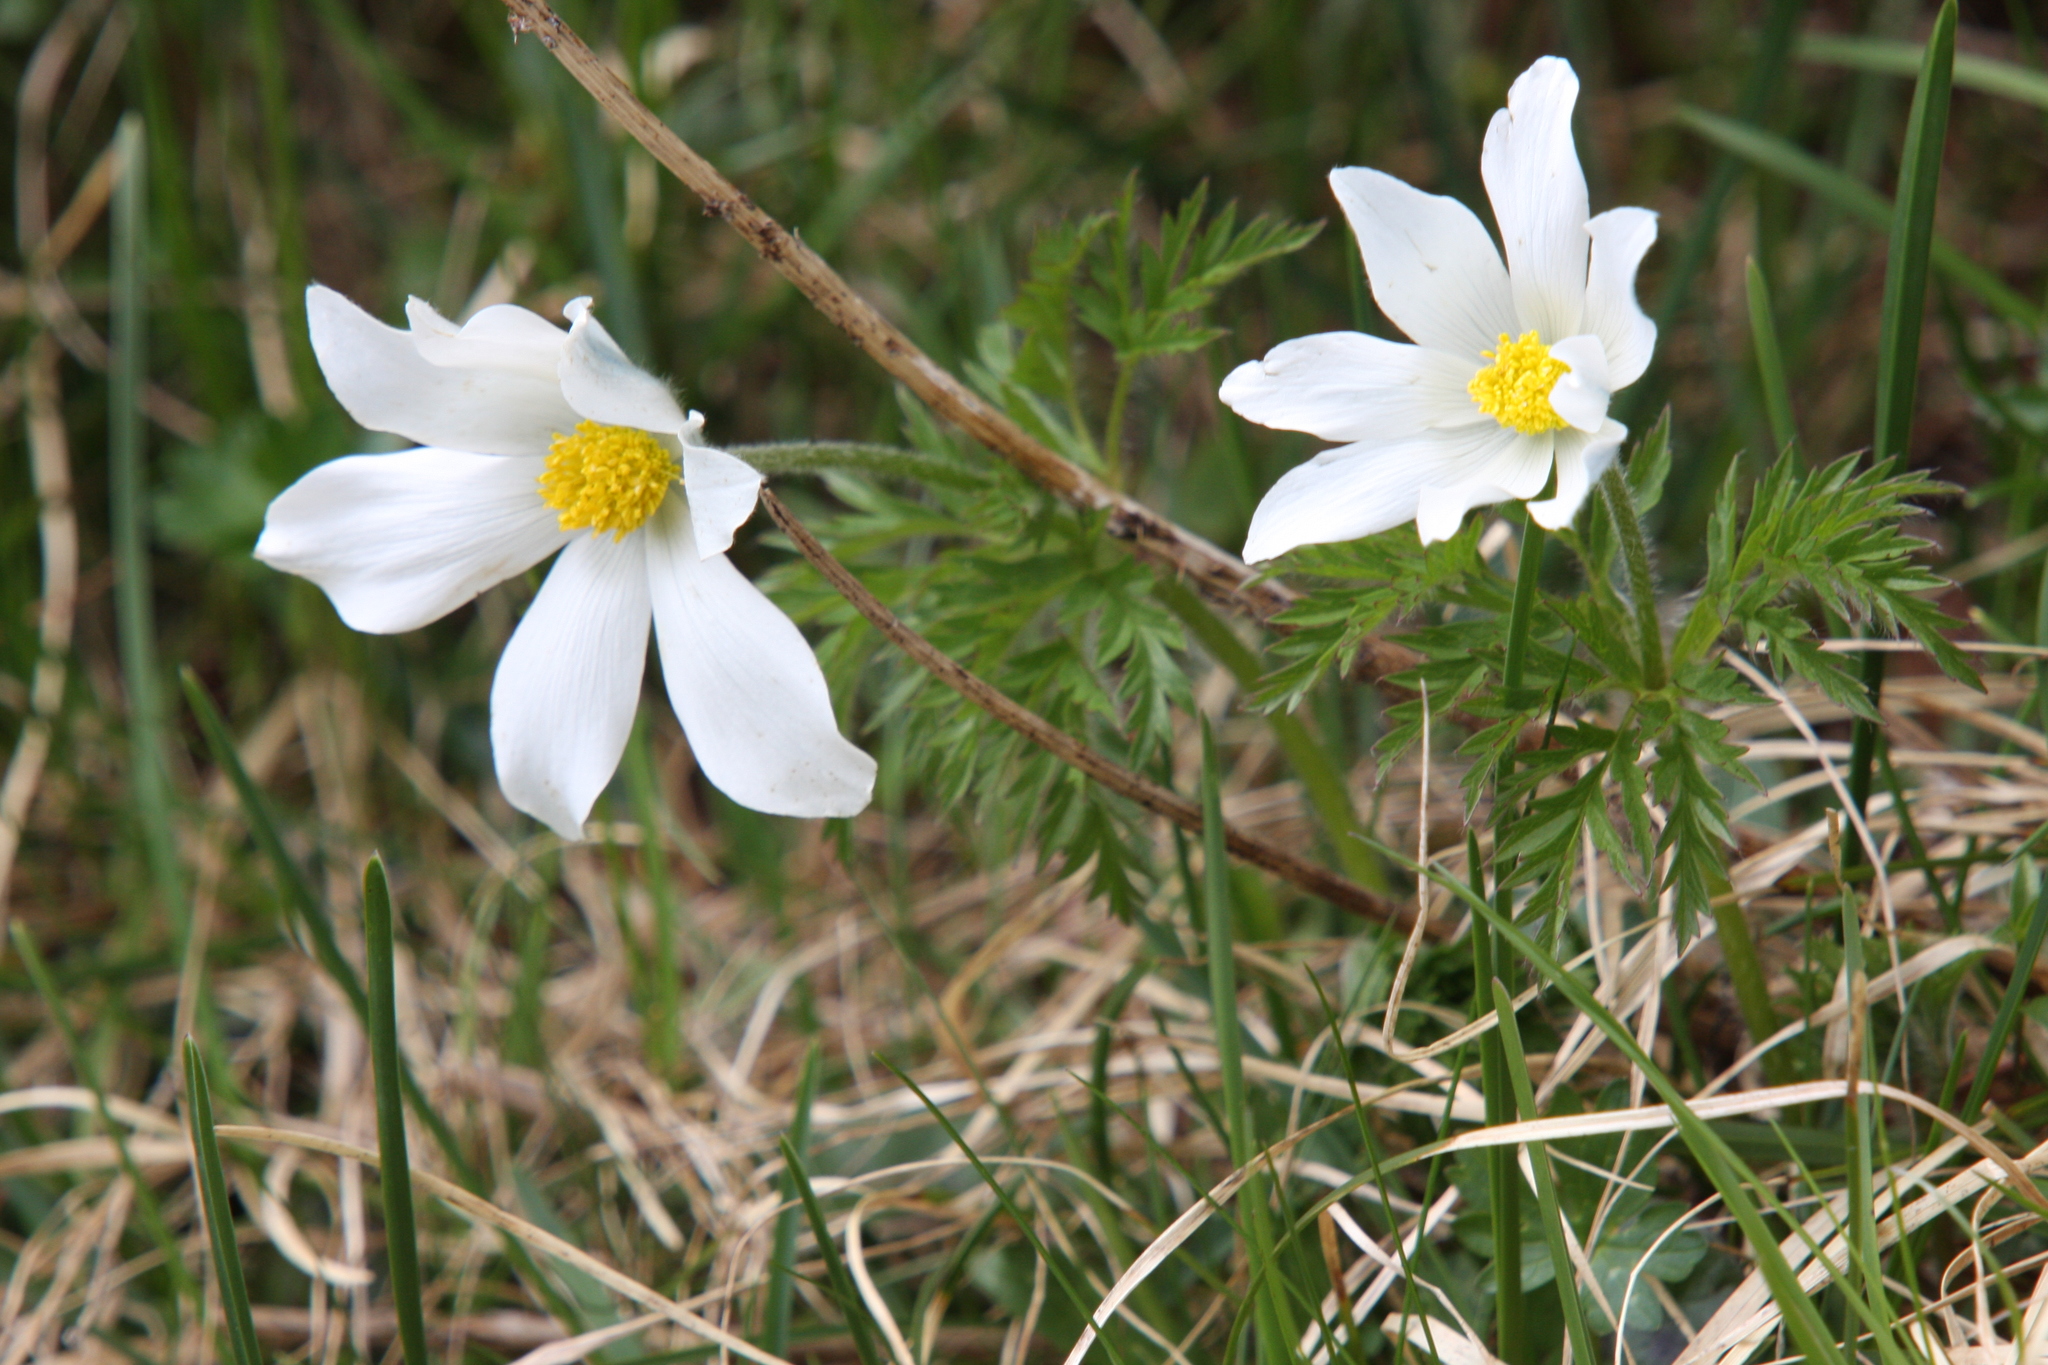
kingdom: Plantae
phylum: Tracheophyta
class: Magnoliopsida
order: Ranunculales
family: Ranunculaceae
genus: Pulsatilla
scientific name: Pulsatilla alpina
